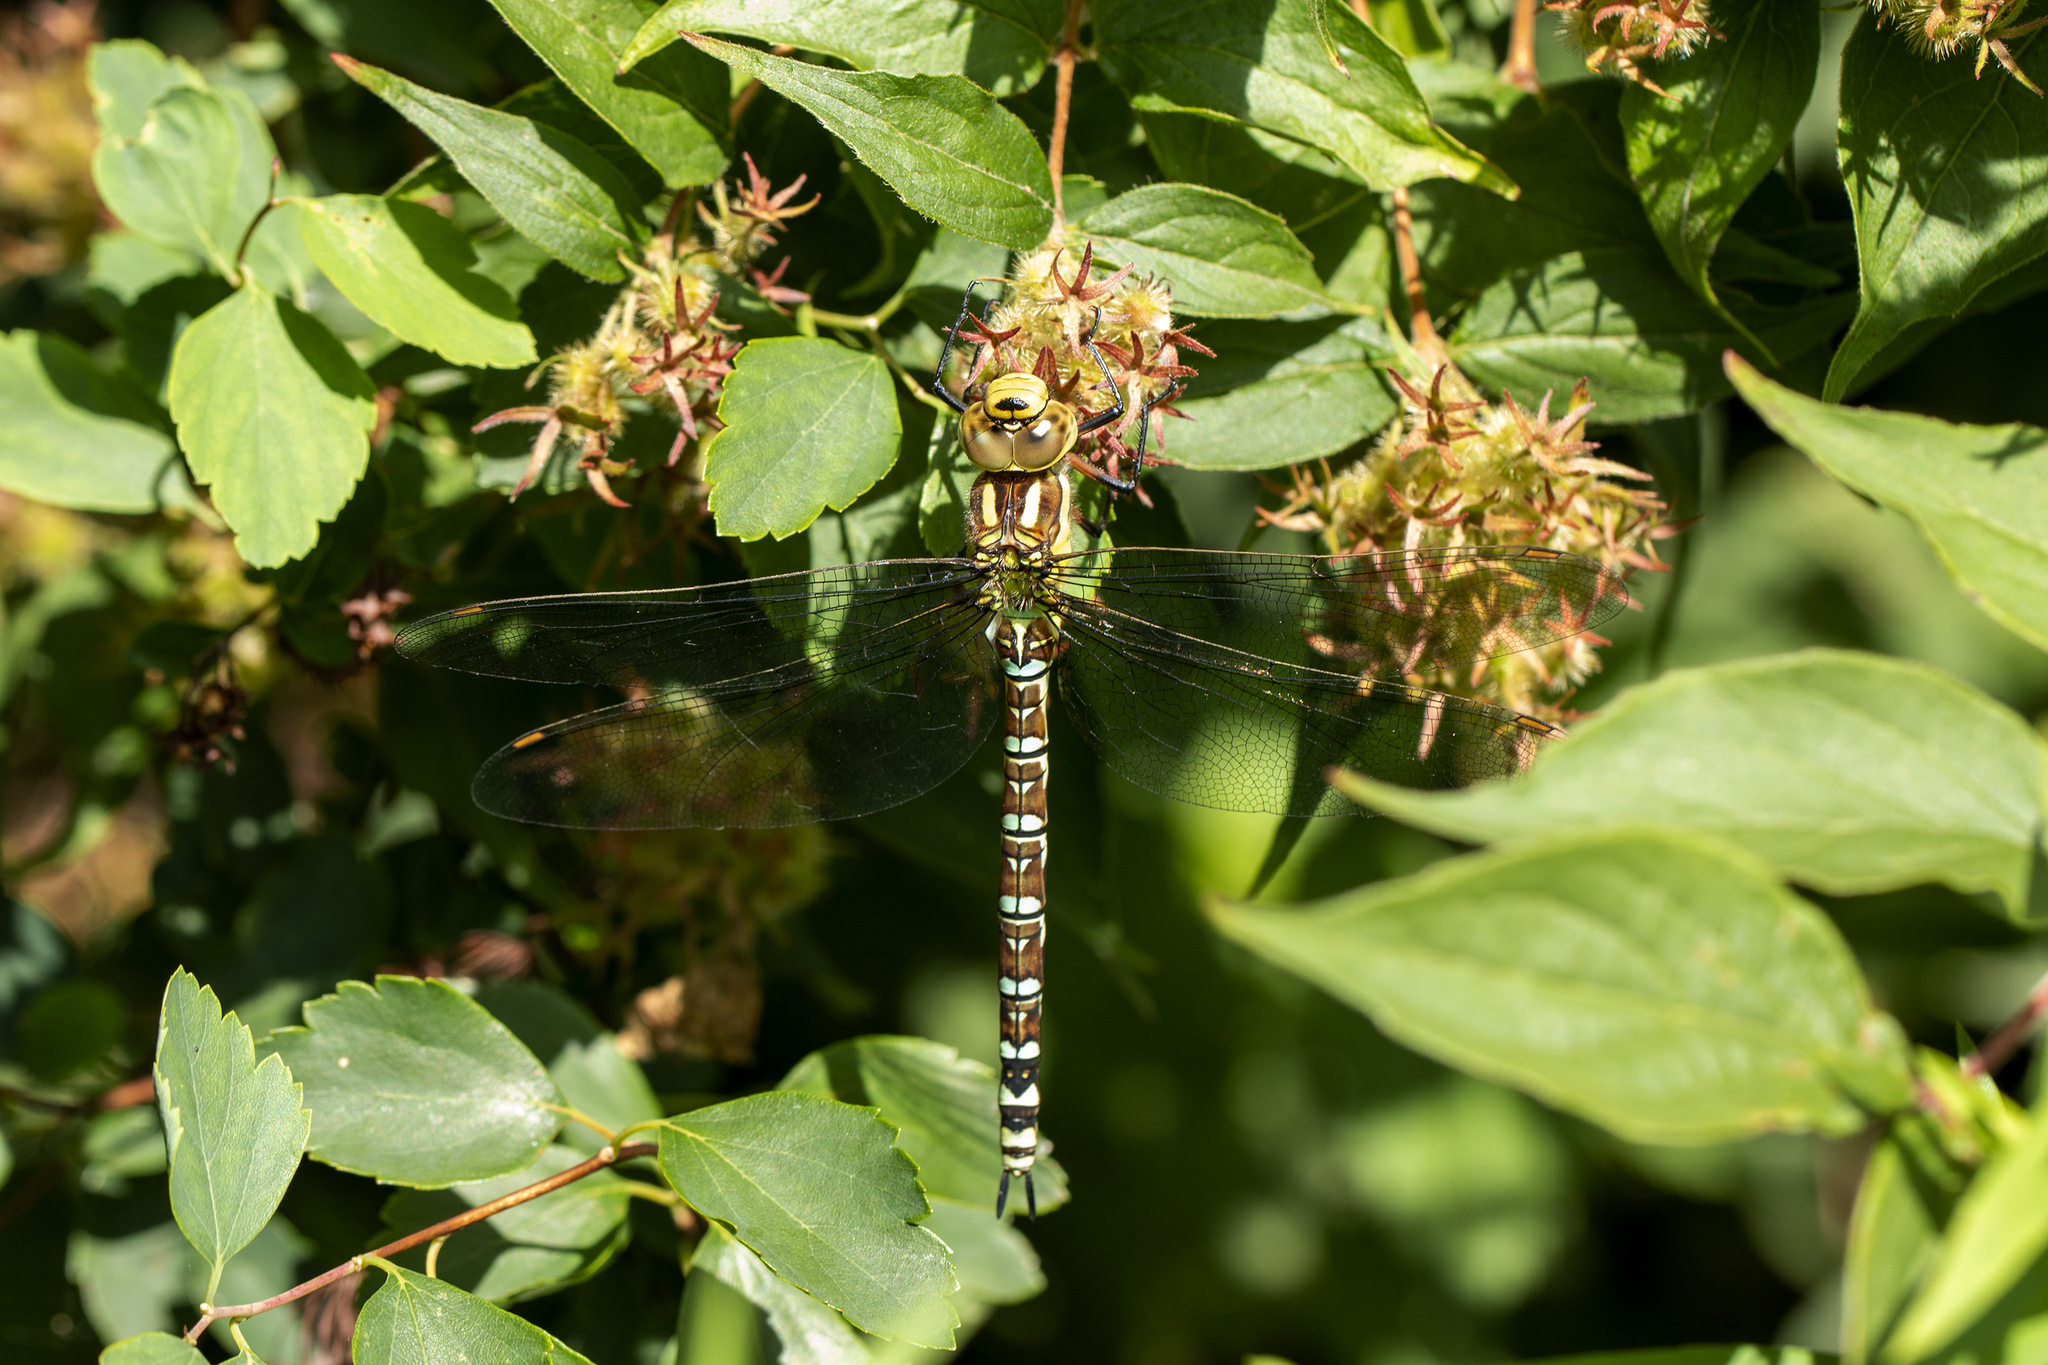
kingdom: Animalia
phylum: Arthropoda
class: Insecta
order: Odonata
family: Aeshnidae
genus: Aeshna
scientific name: Aeshna cyanea
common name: Southern hawker
